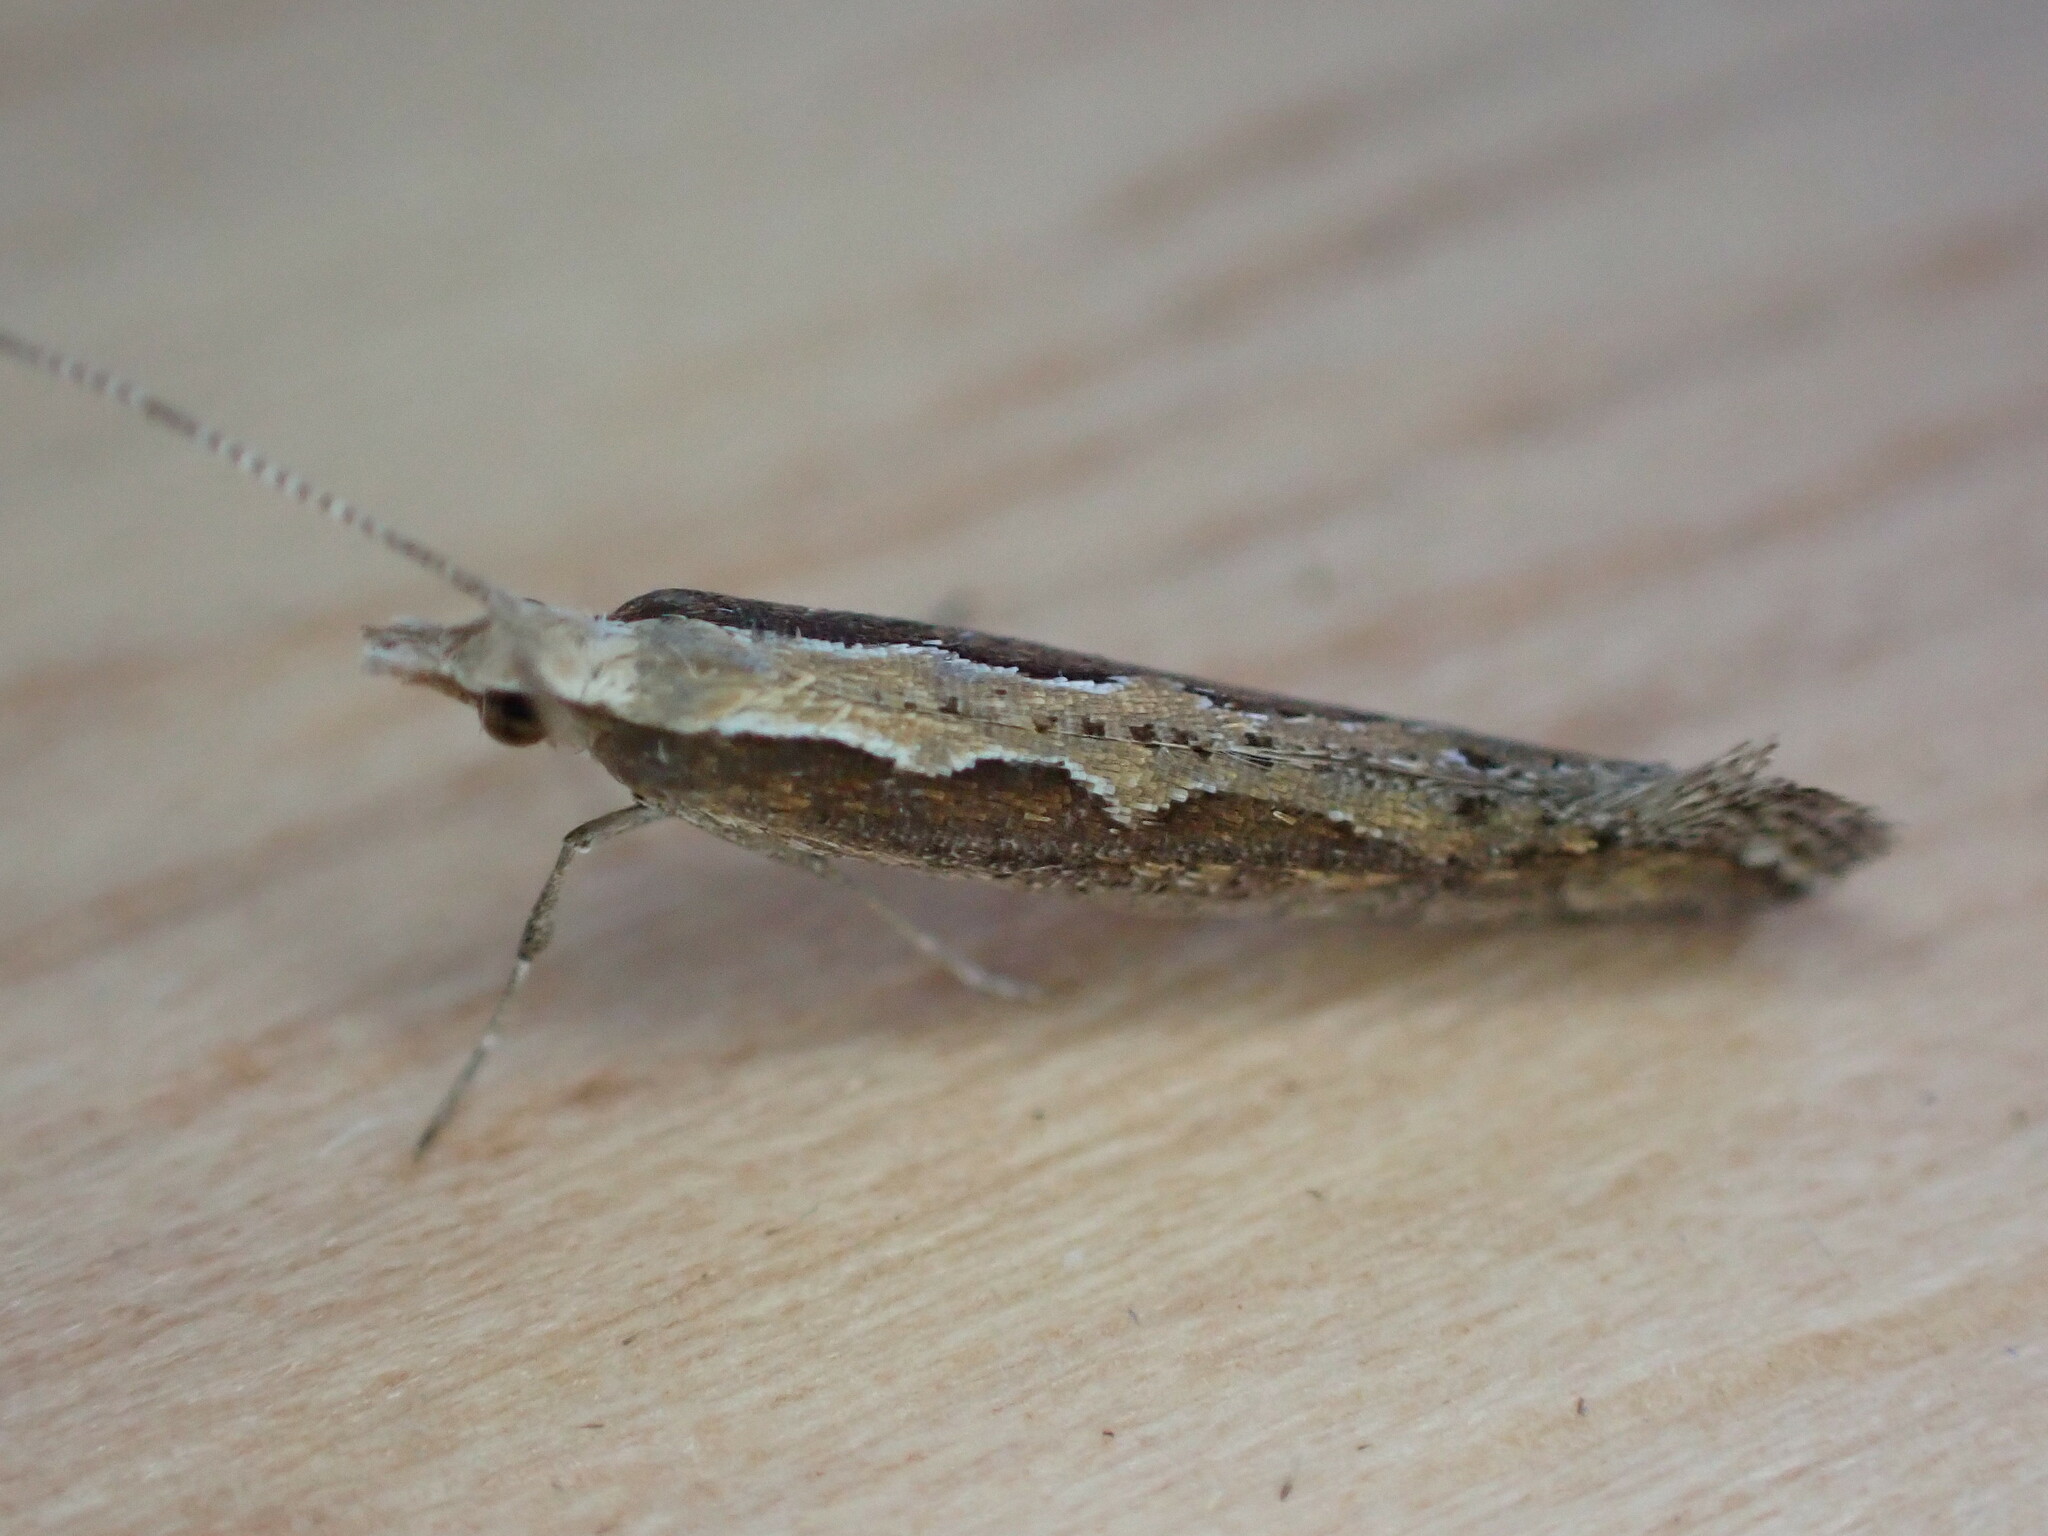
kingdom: Animalia
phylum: Arthropoda
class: Insecta
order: Lepidoptera
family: Plutellidae
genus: Plutella
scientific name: Plutella xylostella
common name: Diamond-back moth
